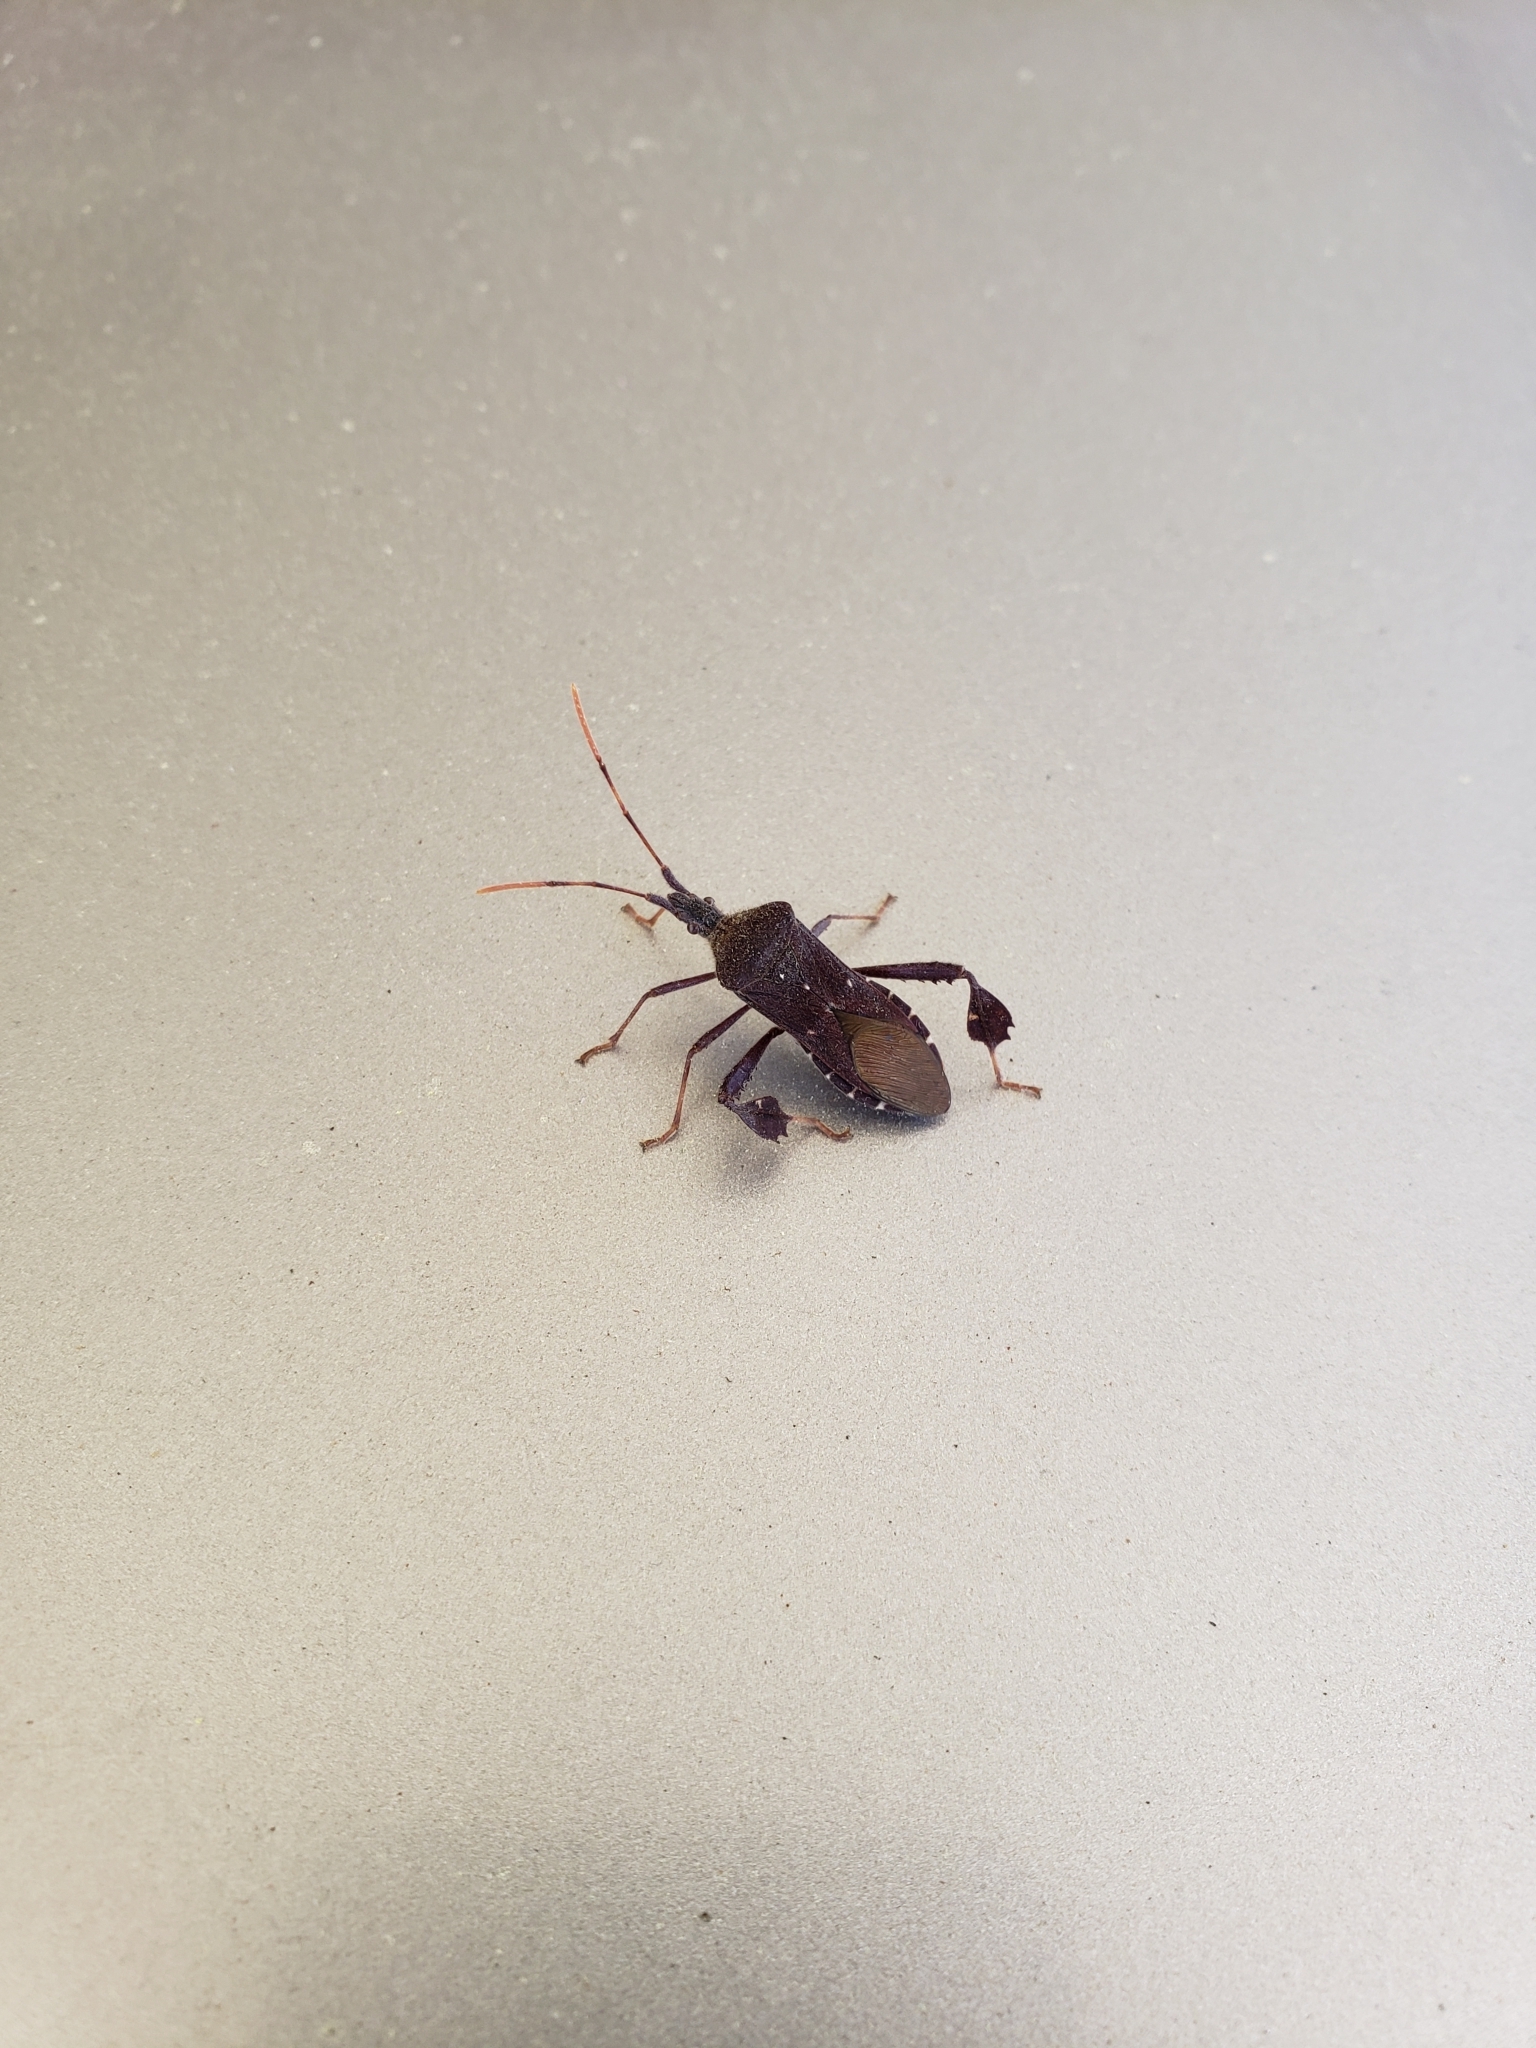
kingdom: Animalia
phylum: Arthropoda
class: Insecta
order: Hemiptera
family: Coreidae
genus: Leptoglossus
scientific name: Leptoglossus oppositus
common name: Northern leaf-footed bug
